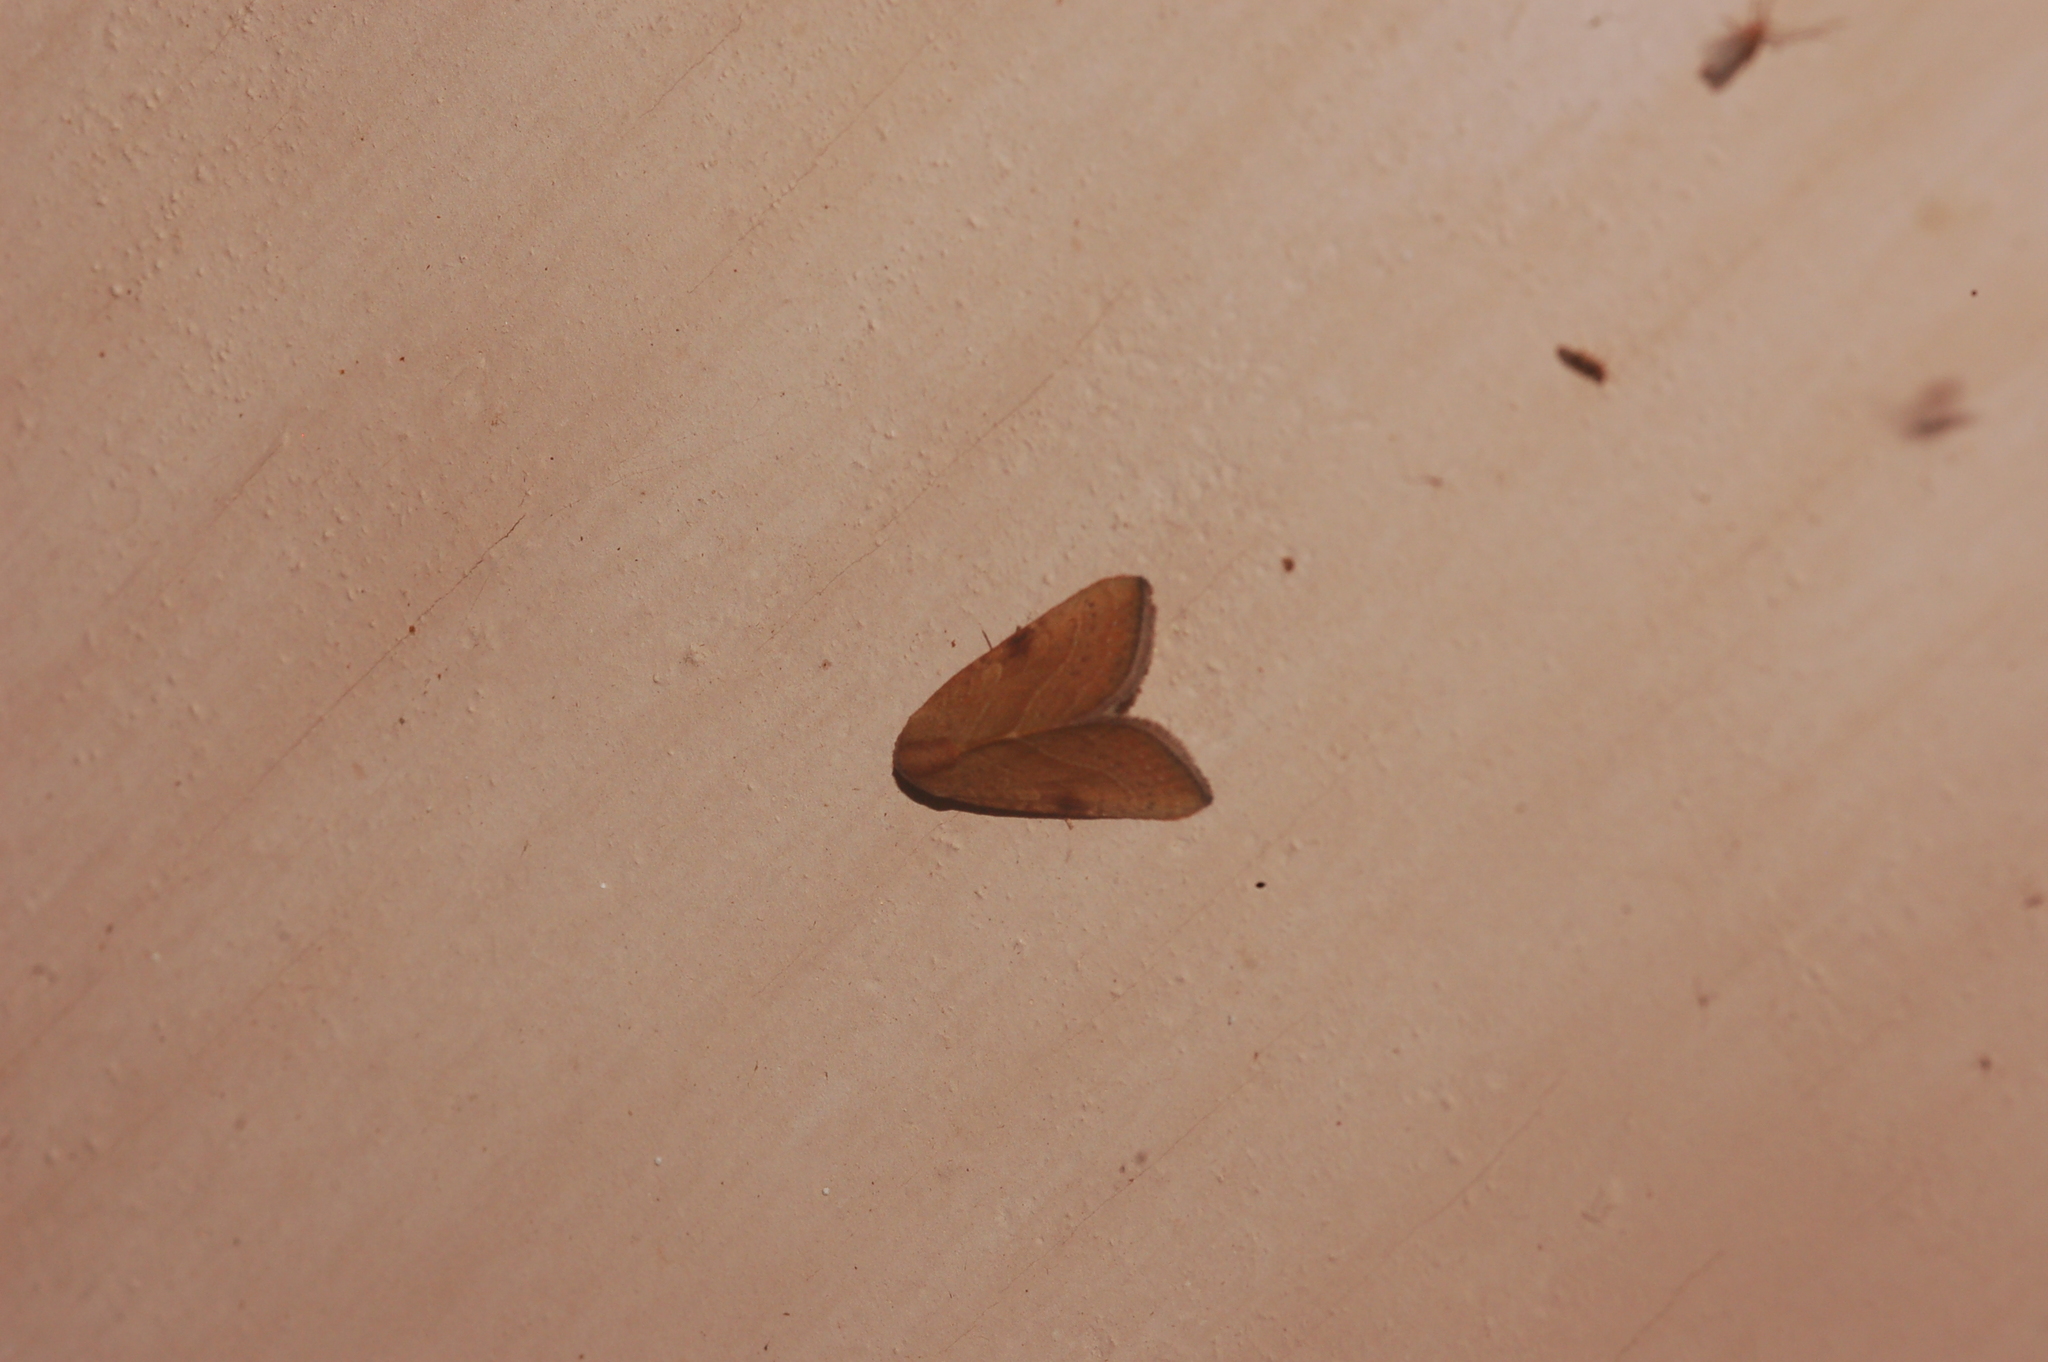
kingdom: Animalia
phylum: Arthropoda
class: Insecta
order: Lepidoptera
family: Noctuidae
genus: Galgula
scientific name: Galgula partita
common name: Wedgeling
